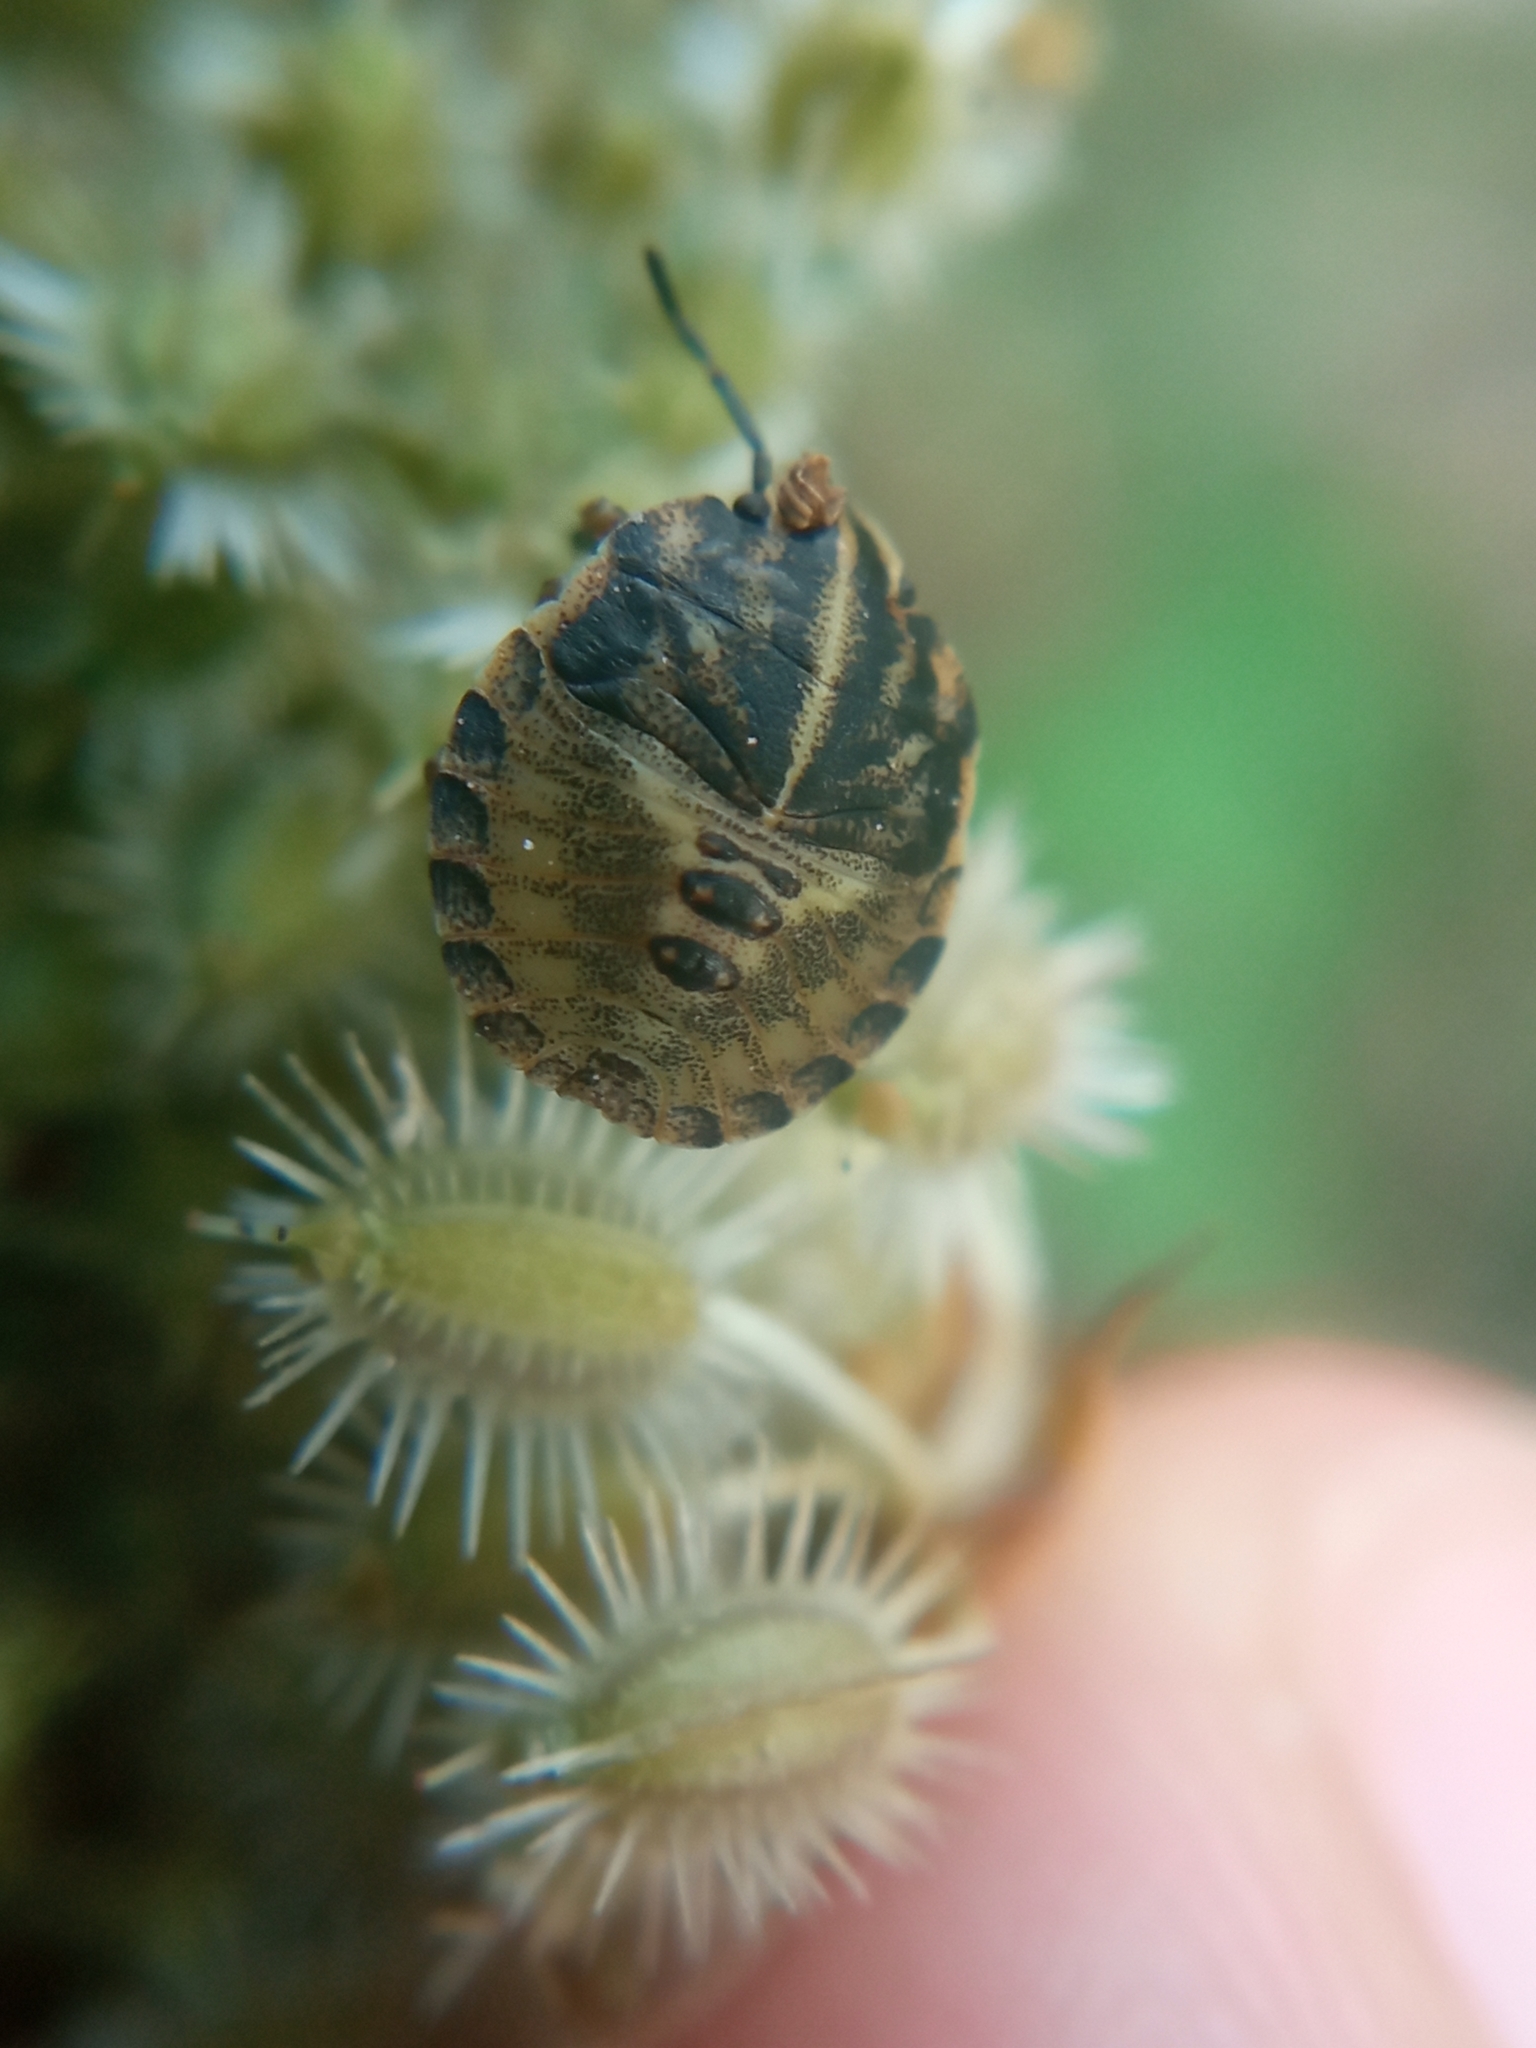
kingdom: Animalia
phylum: Arthropoda
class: Insecta
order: Hemiptera
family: Pentatomidae
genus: Graphosoma
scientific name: Graphosoma italicum
